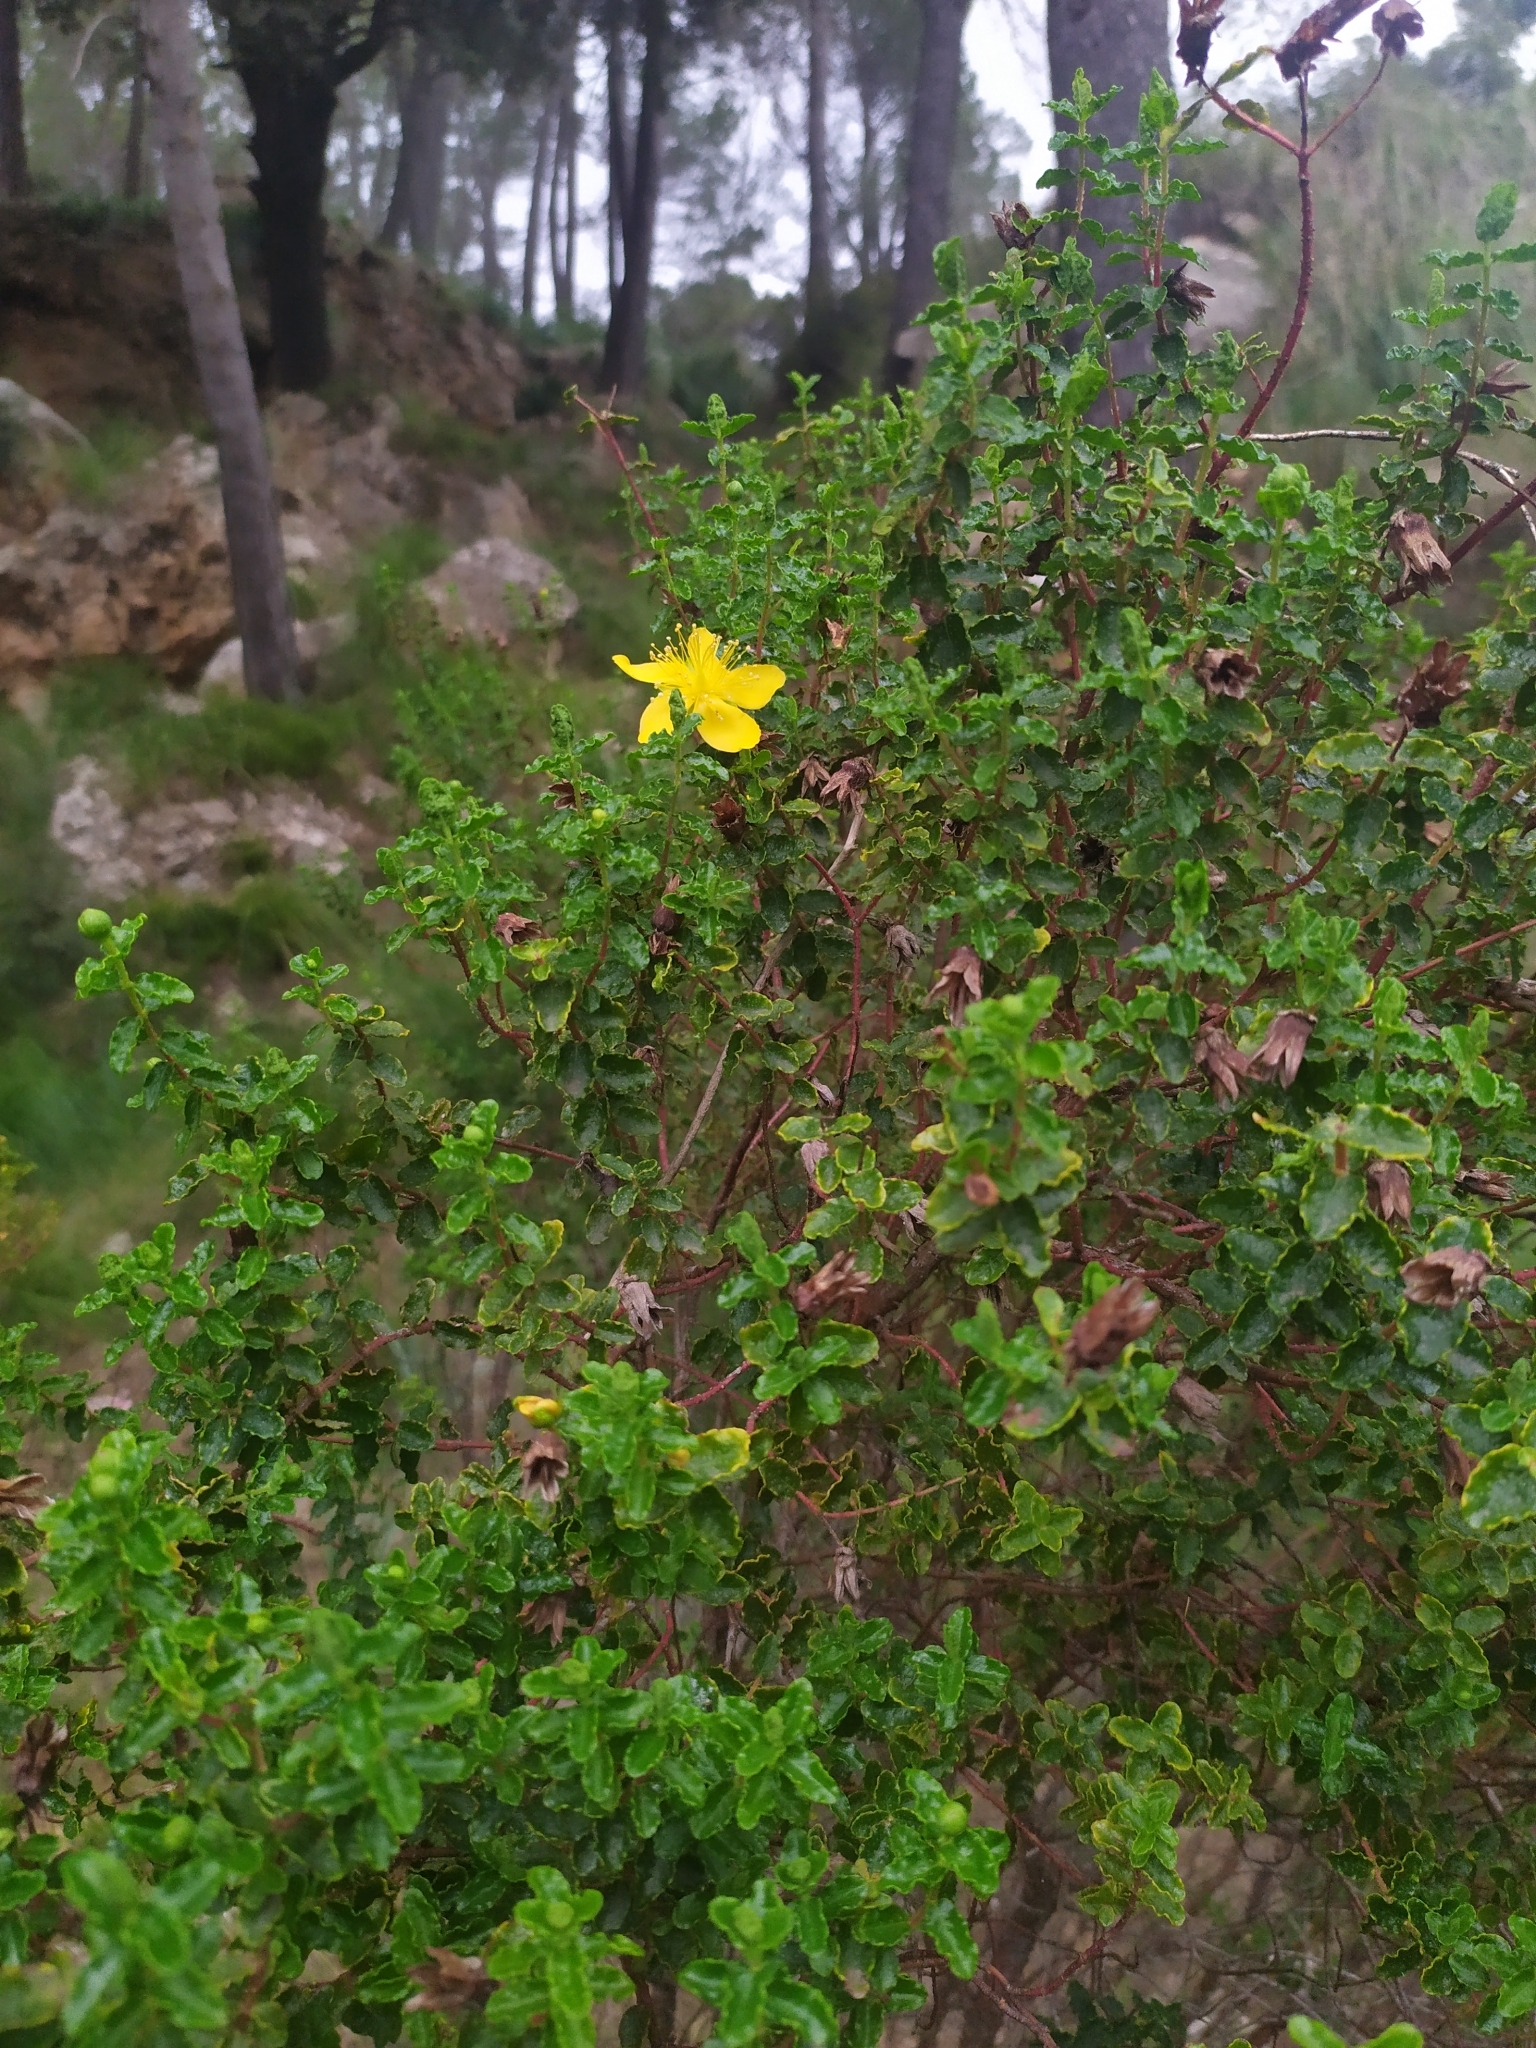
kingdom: Plantae
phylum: Tracheophyta
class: Magnoliopsida
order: Malpighiales
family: Hypericaceae
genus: Hypericum
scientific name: Hypericum balearicum
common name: Majorca st john's wort
